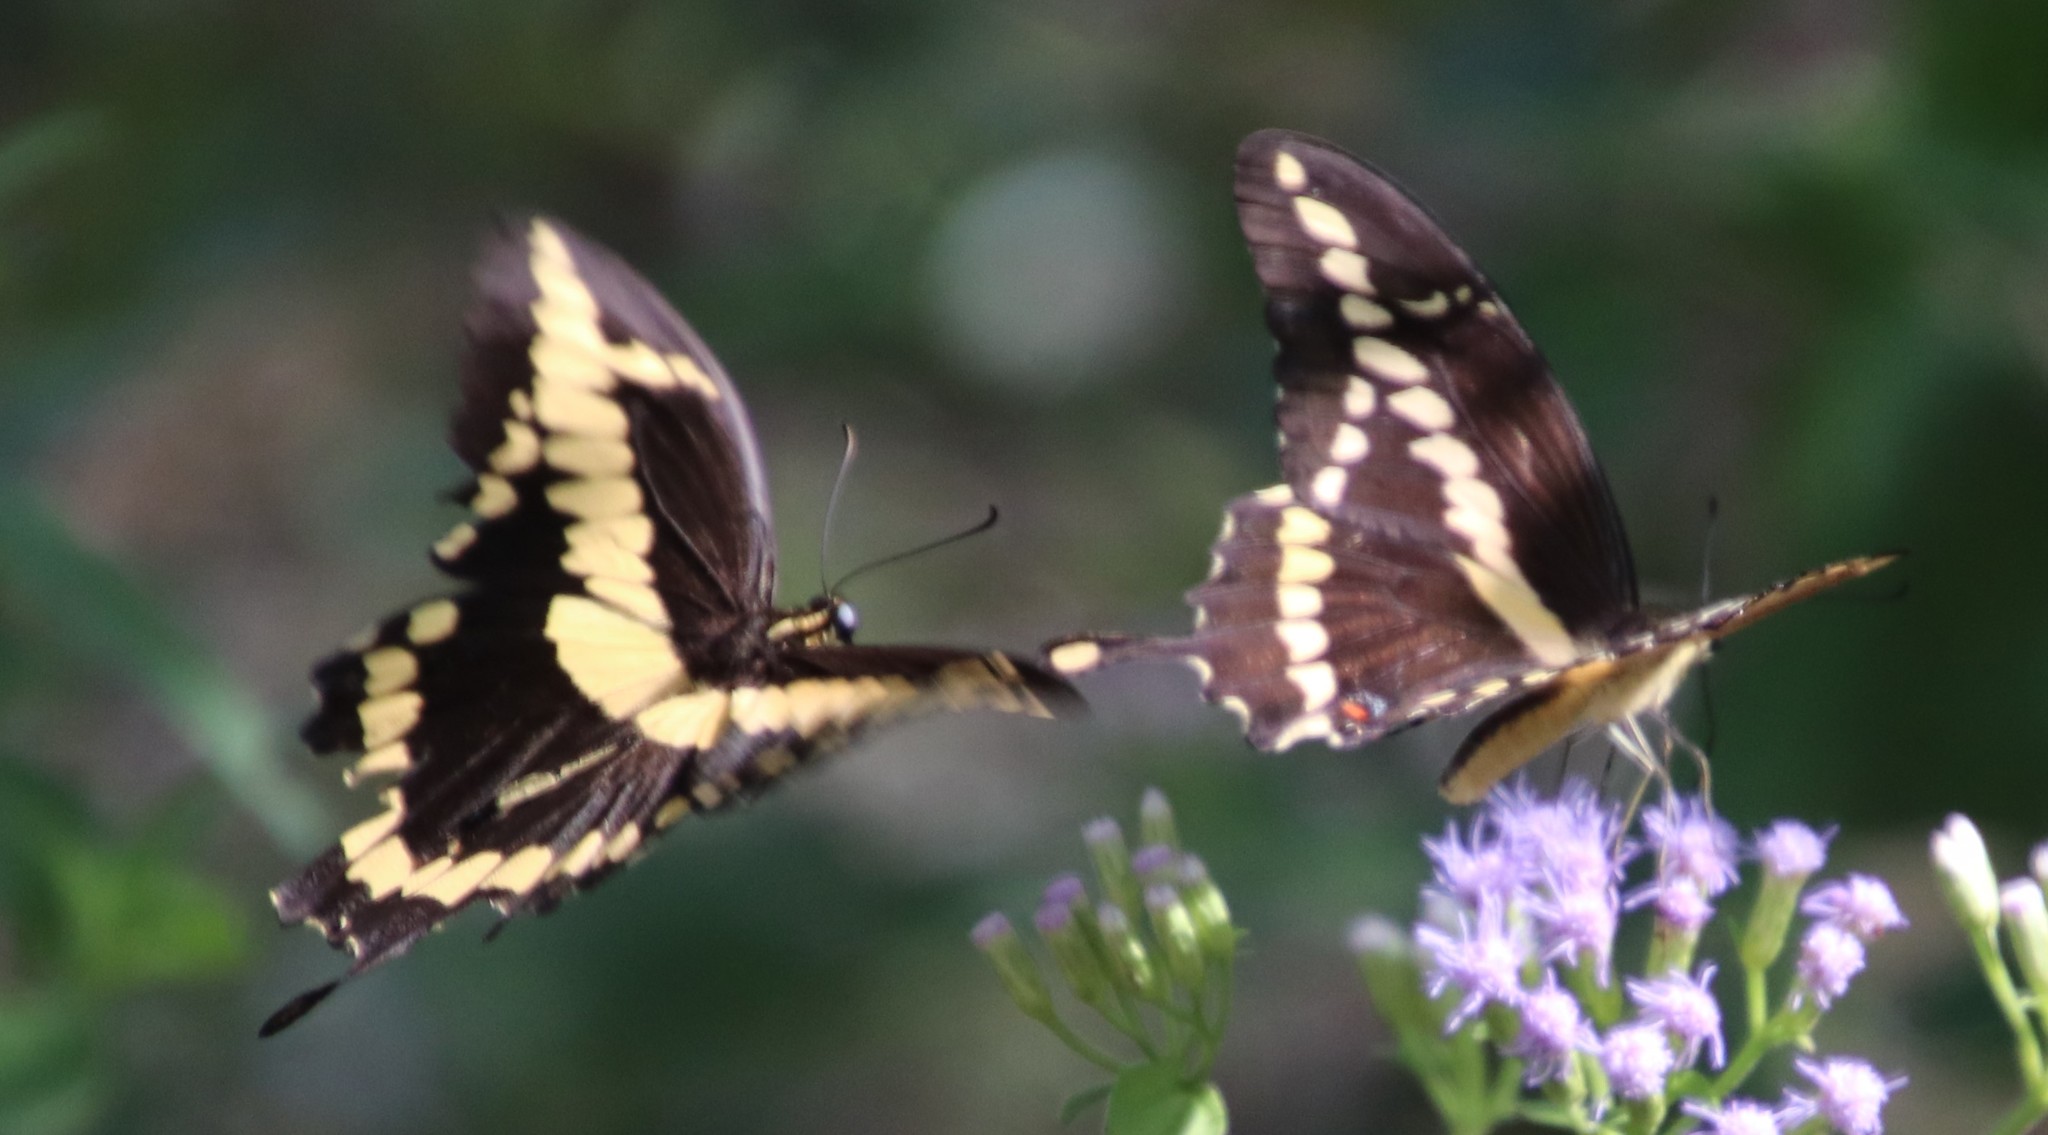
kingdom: Animalia
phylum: Arthropoda
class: Insecta
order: Lepidoptera
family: Papilionidae
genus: Papilio
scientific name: Papilio rumiko
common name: Western giant swallowtail
